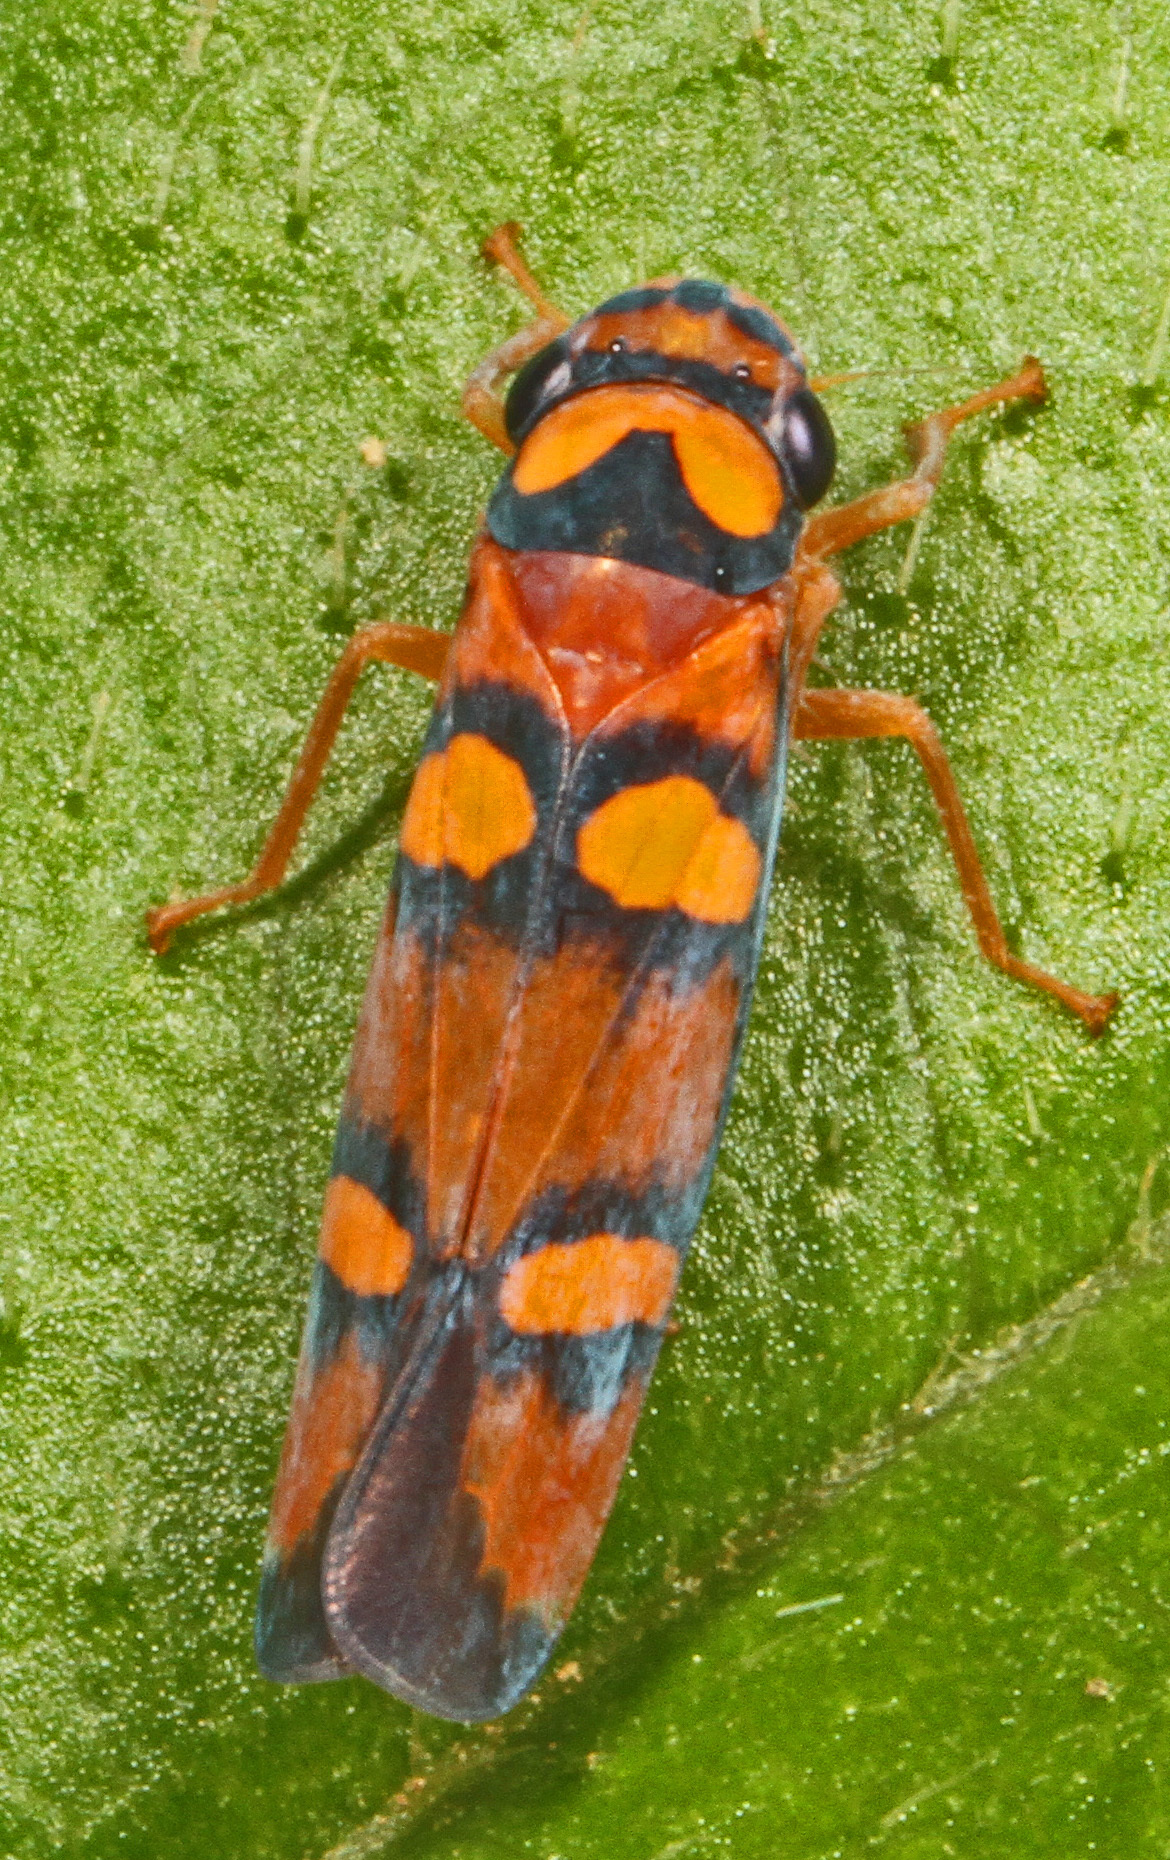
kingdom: Animalia
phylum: Arthropoda
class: Insecta
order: Hemiptera
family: Cicadellidae
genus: Pawiloma
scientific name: Pawiloma jucunda
